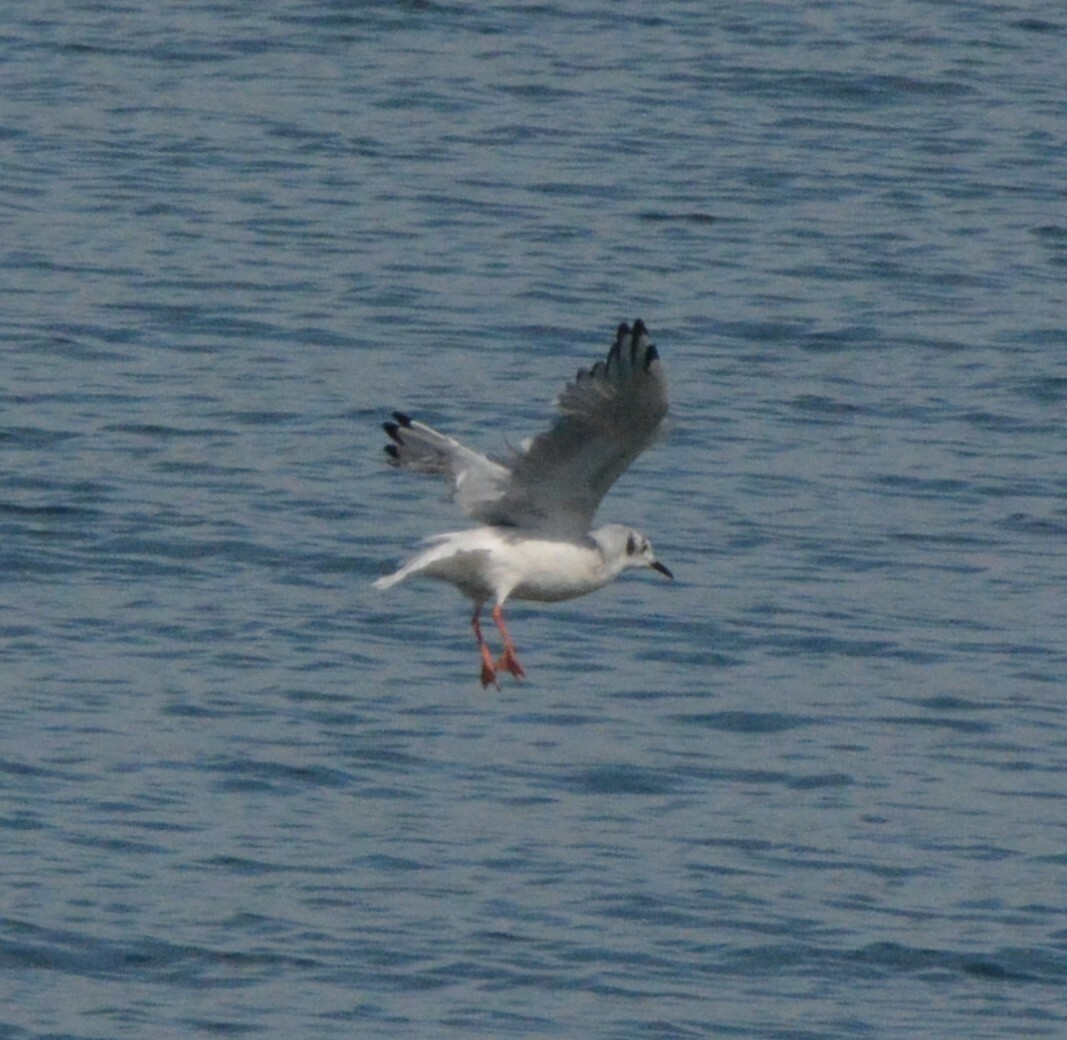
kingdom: Animalia
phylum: Chordata
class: Aves
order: Charadriiformes
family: Laridae
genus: Chroicocephalus
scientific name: Chroicocephalus philadelphia
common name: Bonaparte's gull
